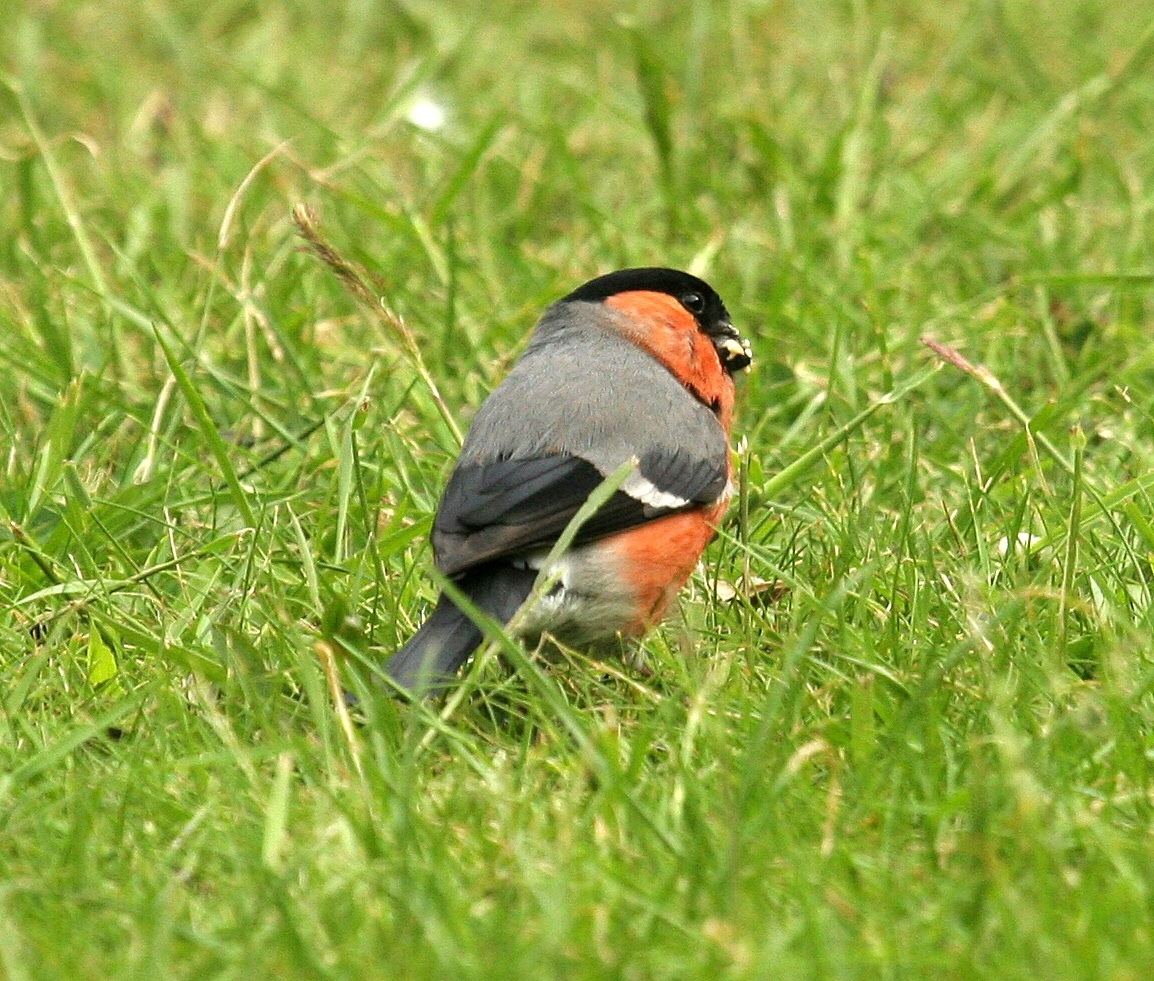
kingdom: Animalia
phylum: Chordata
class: Aves
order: Passeriformes
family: Fringillidae
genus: Pyrrhula
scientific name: Pyrrhula pyrrhula
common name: Eurasian bullfinch
